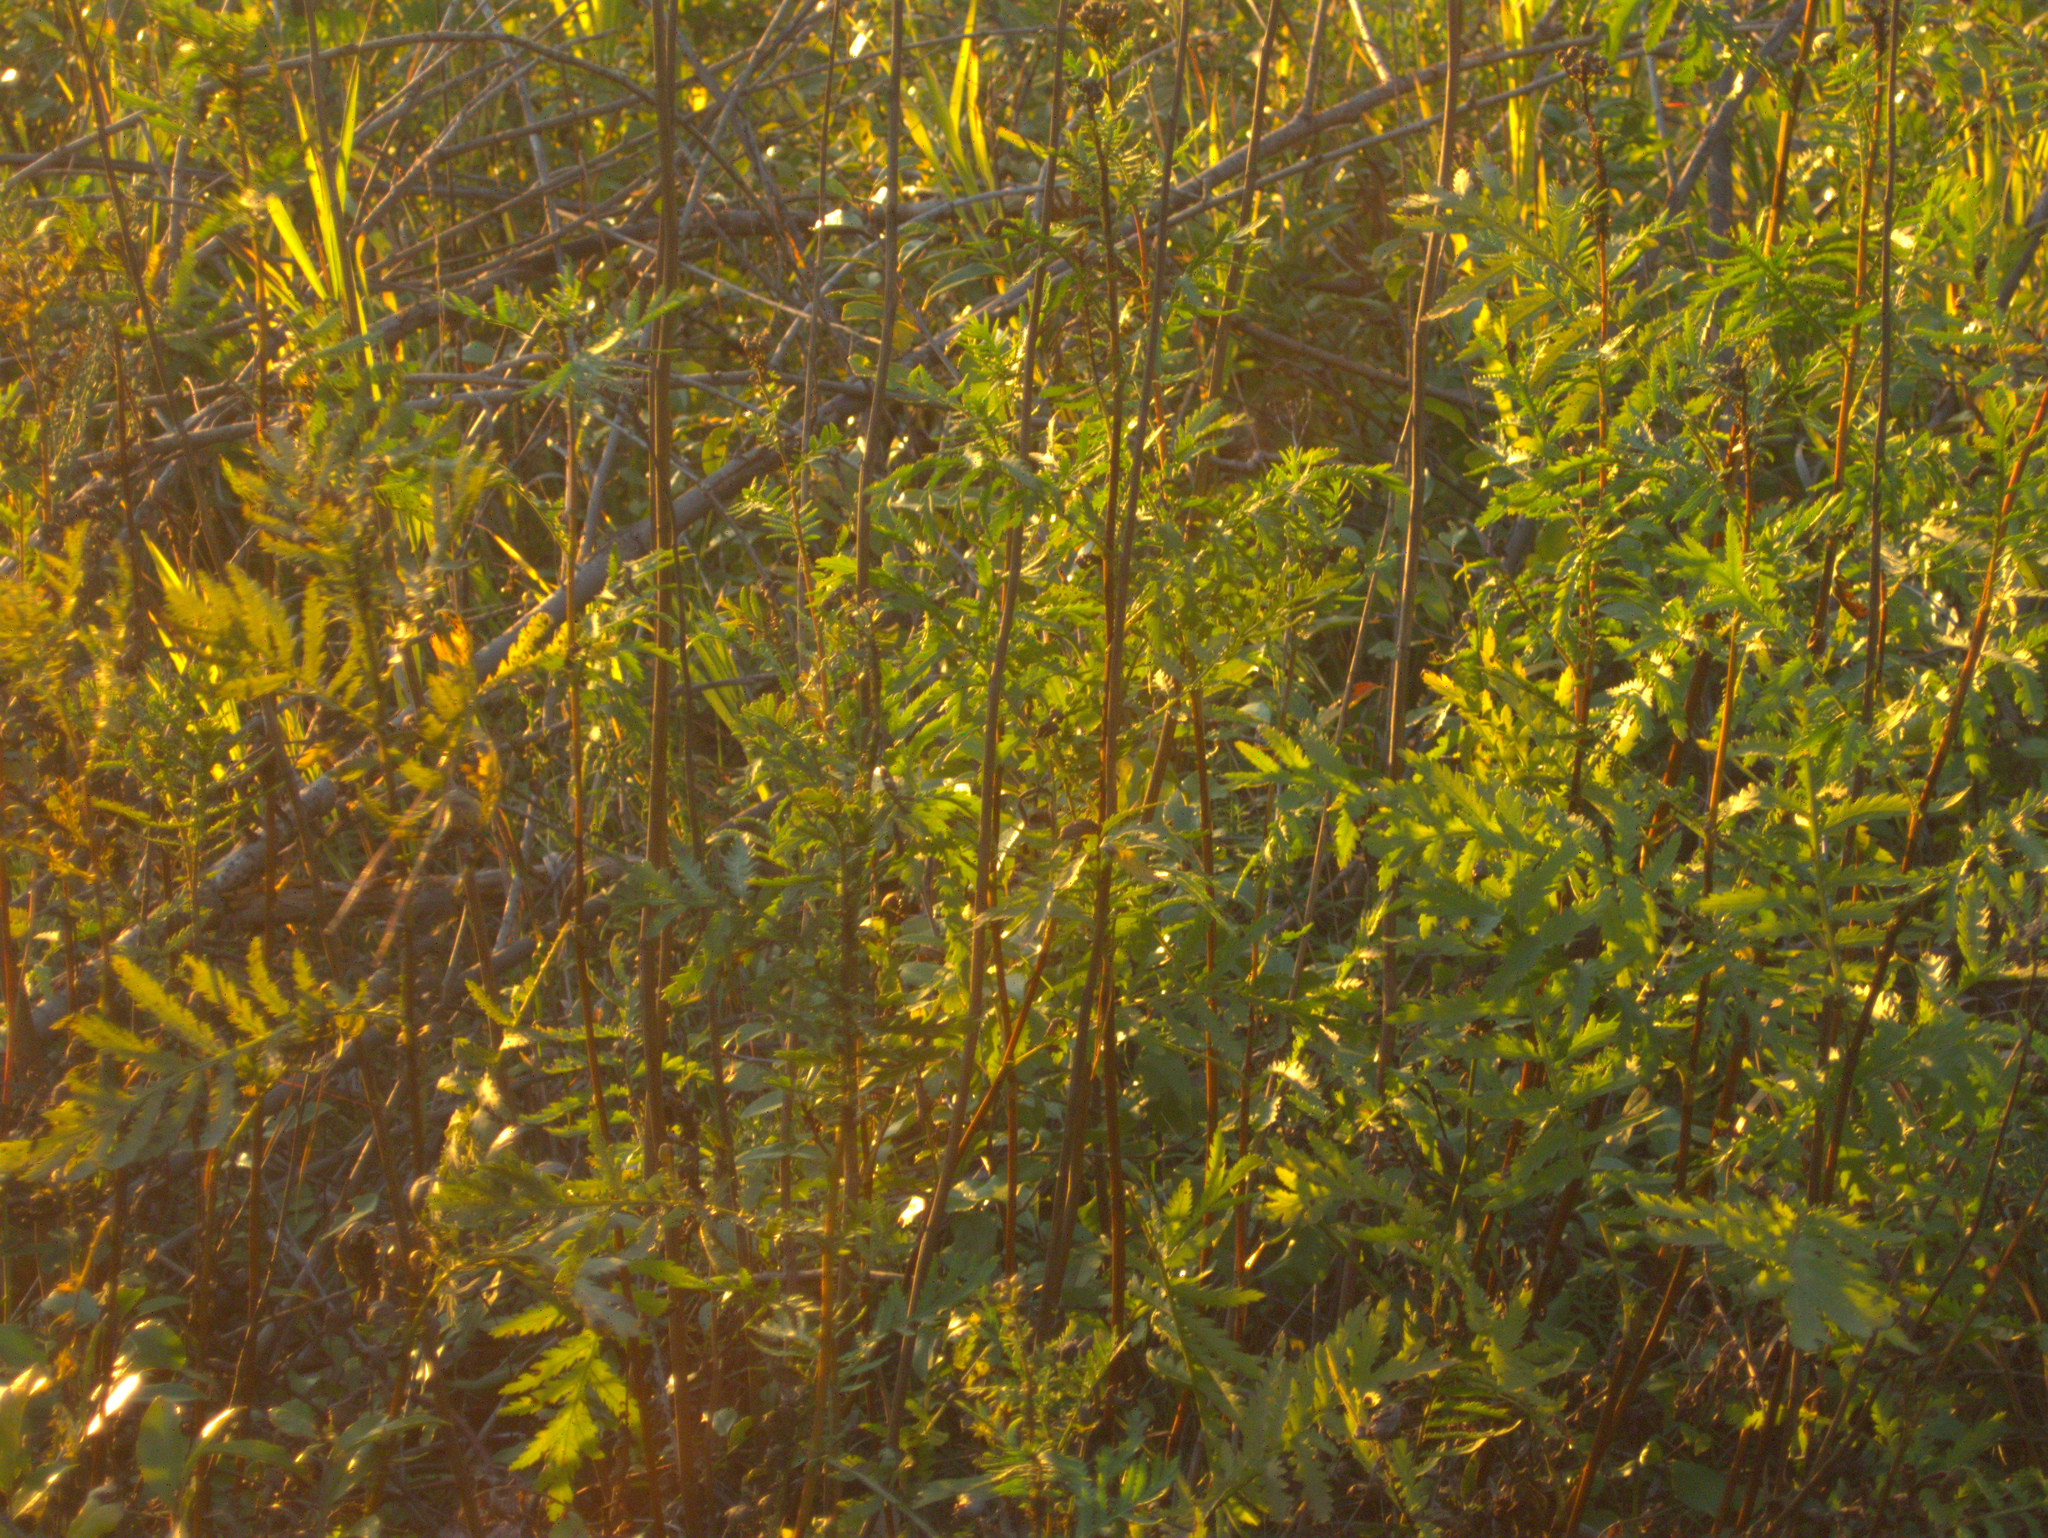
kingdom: Plantae
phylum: Tracheophyta
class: Magnoliopsida
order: Asterales
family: Asteraceae
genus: Tanacetum
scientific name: Tanacetum vulgare
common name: Common tansy
